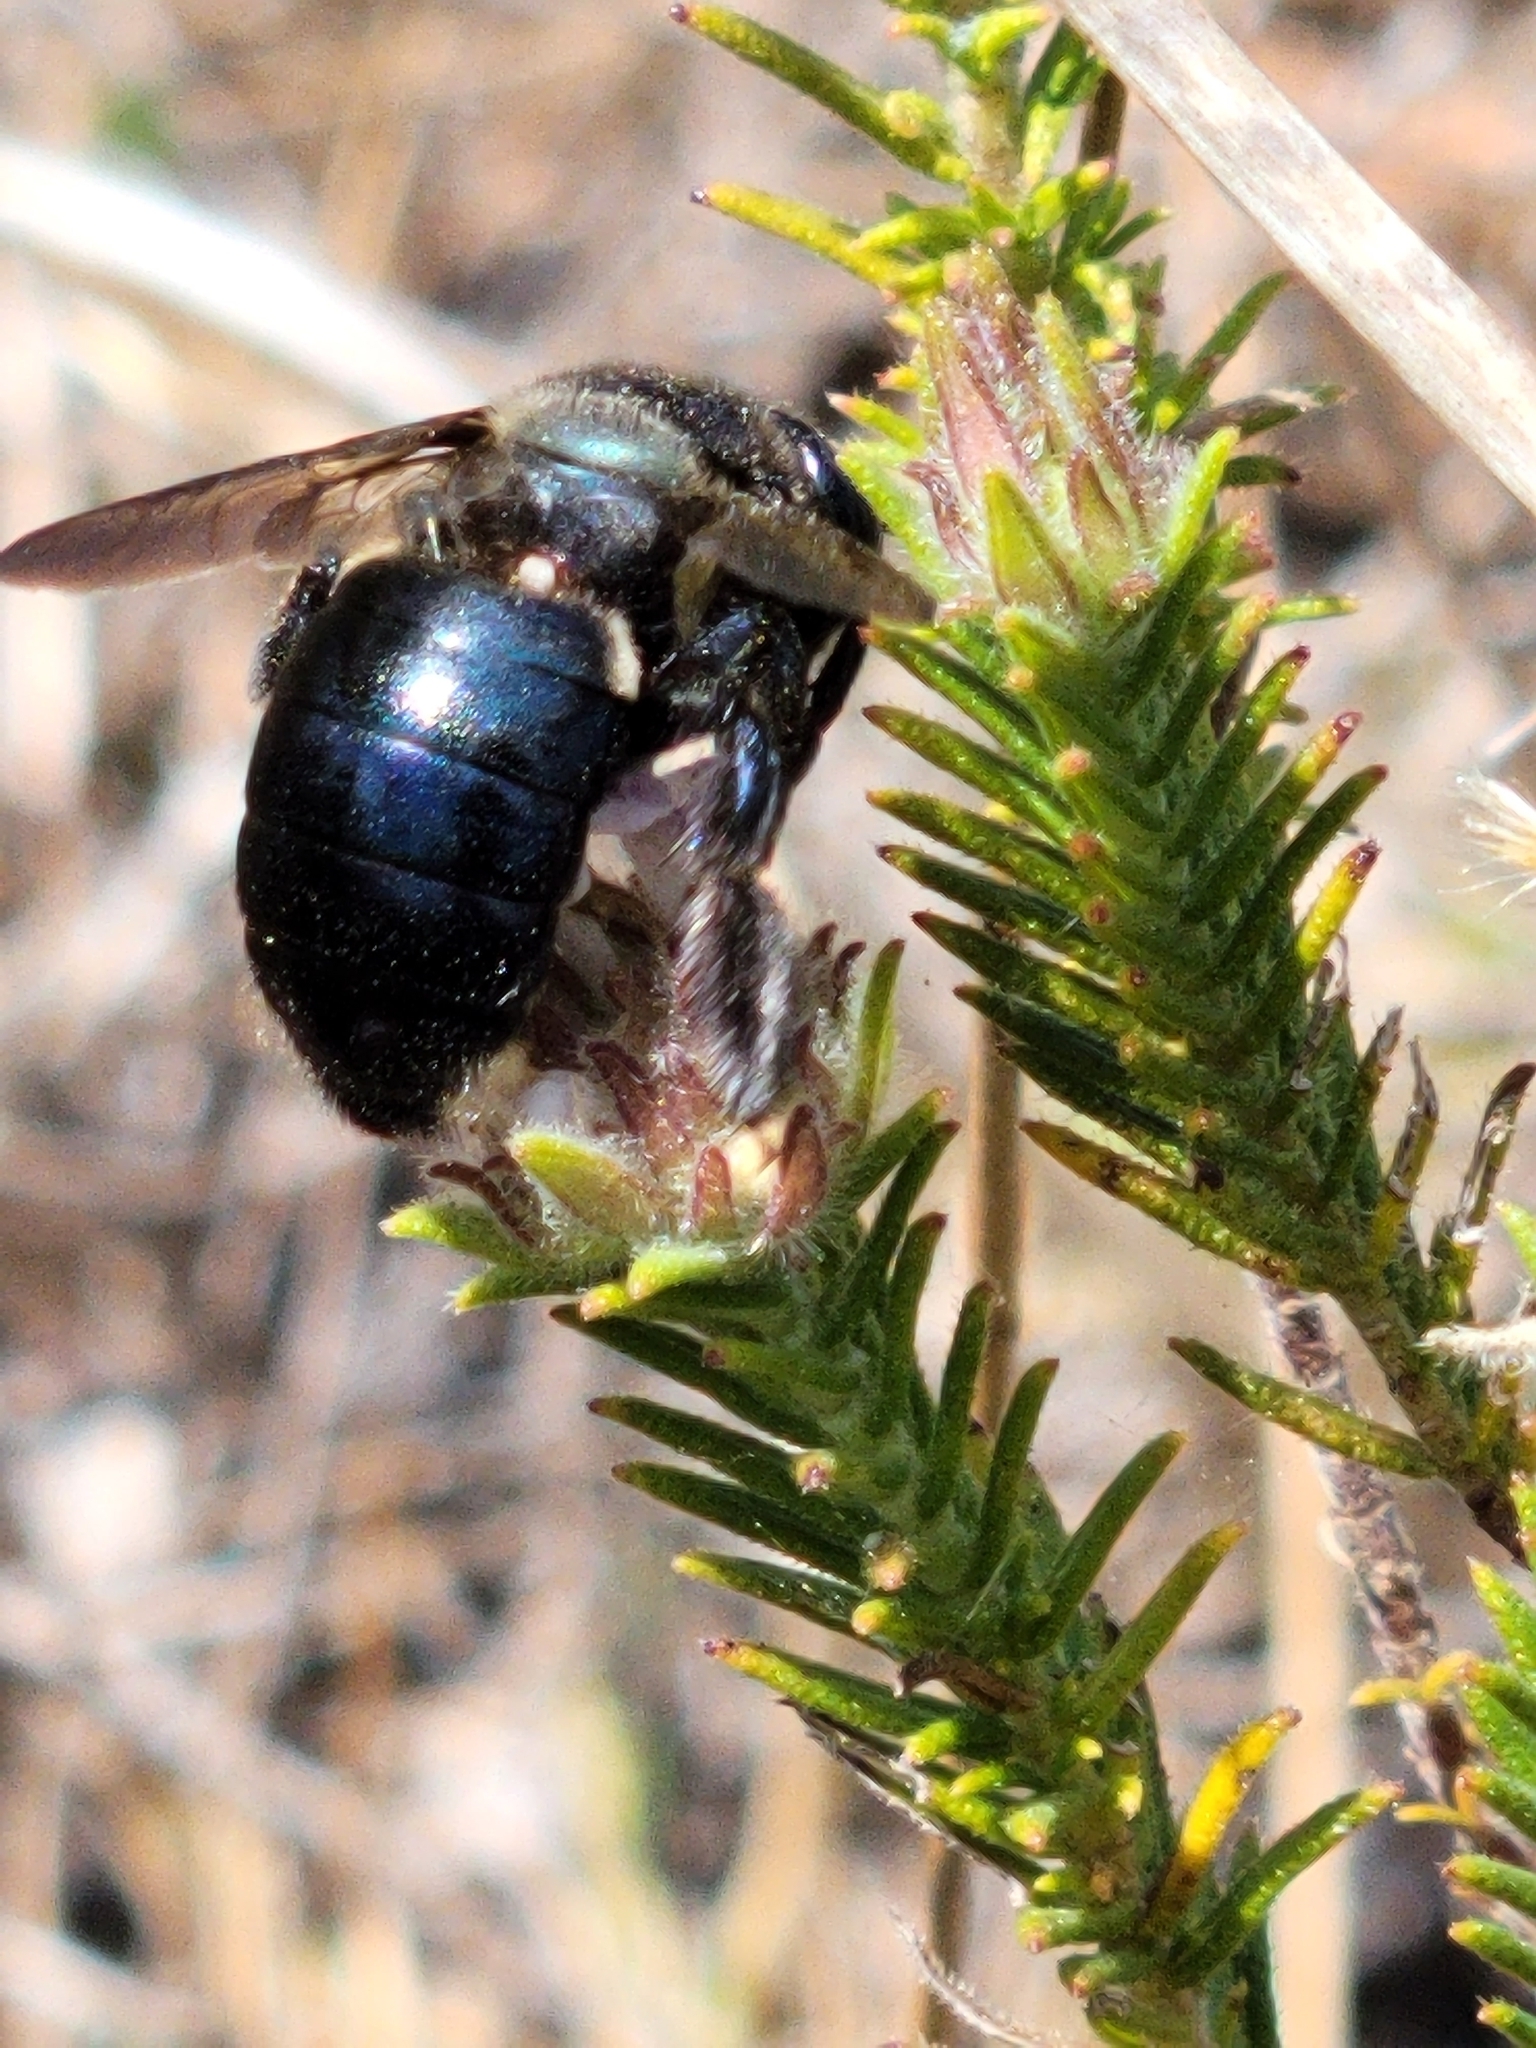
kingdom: Animalia
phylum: Arthropoda
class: Insecta
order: Hymenoptera
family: Apidae
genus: Xylocopa
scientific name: Xylocopa micans
